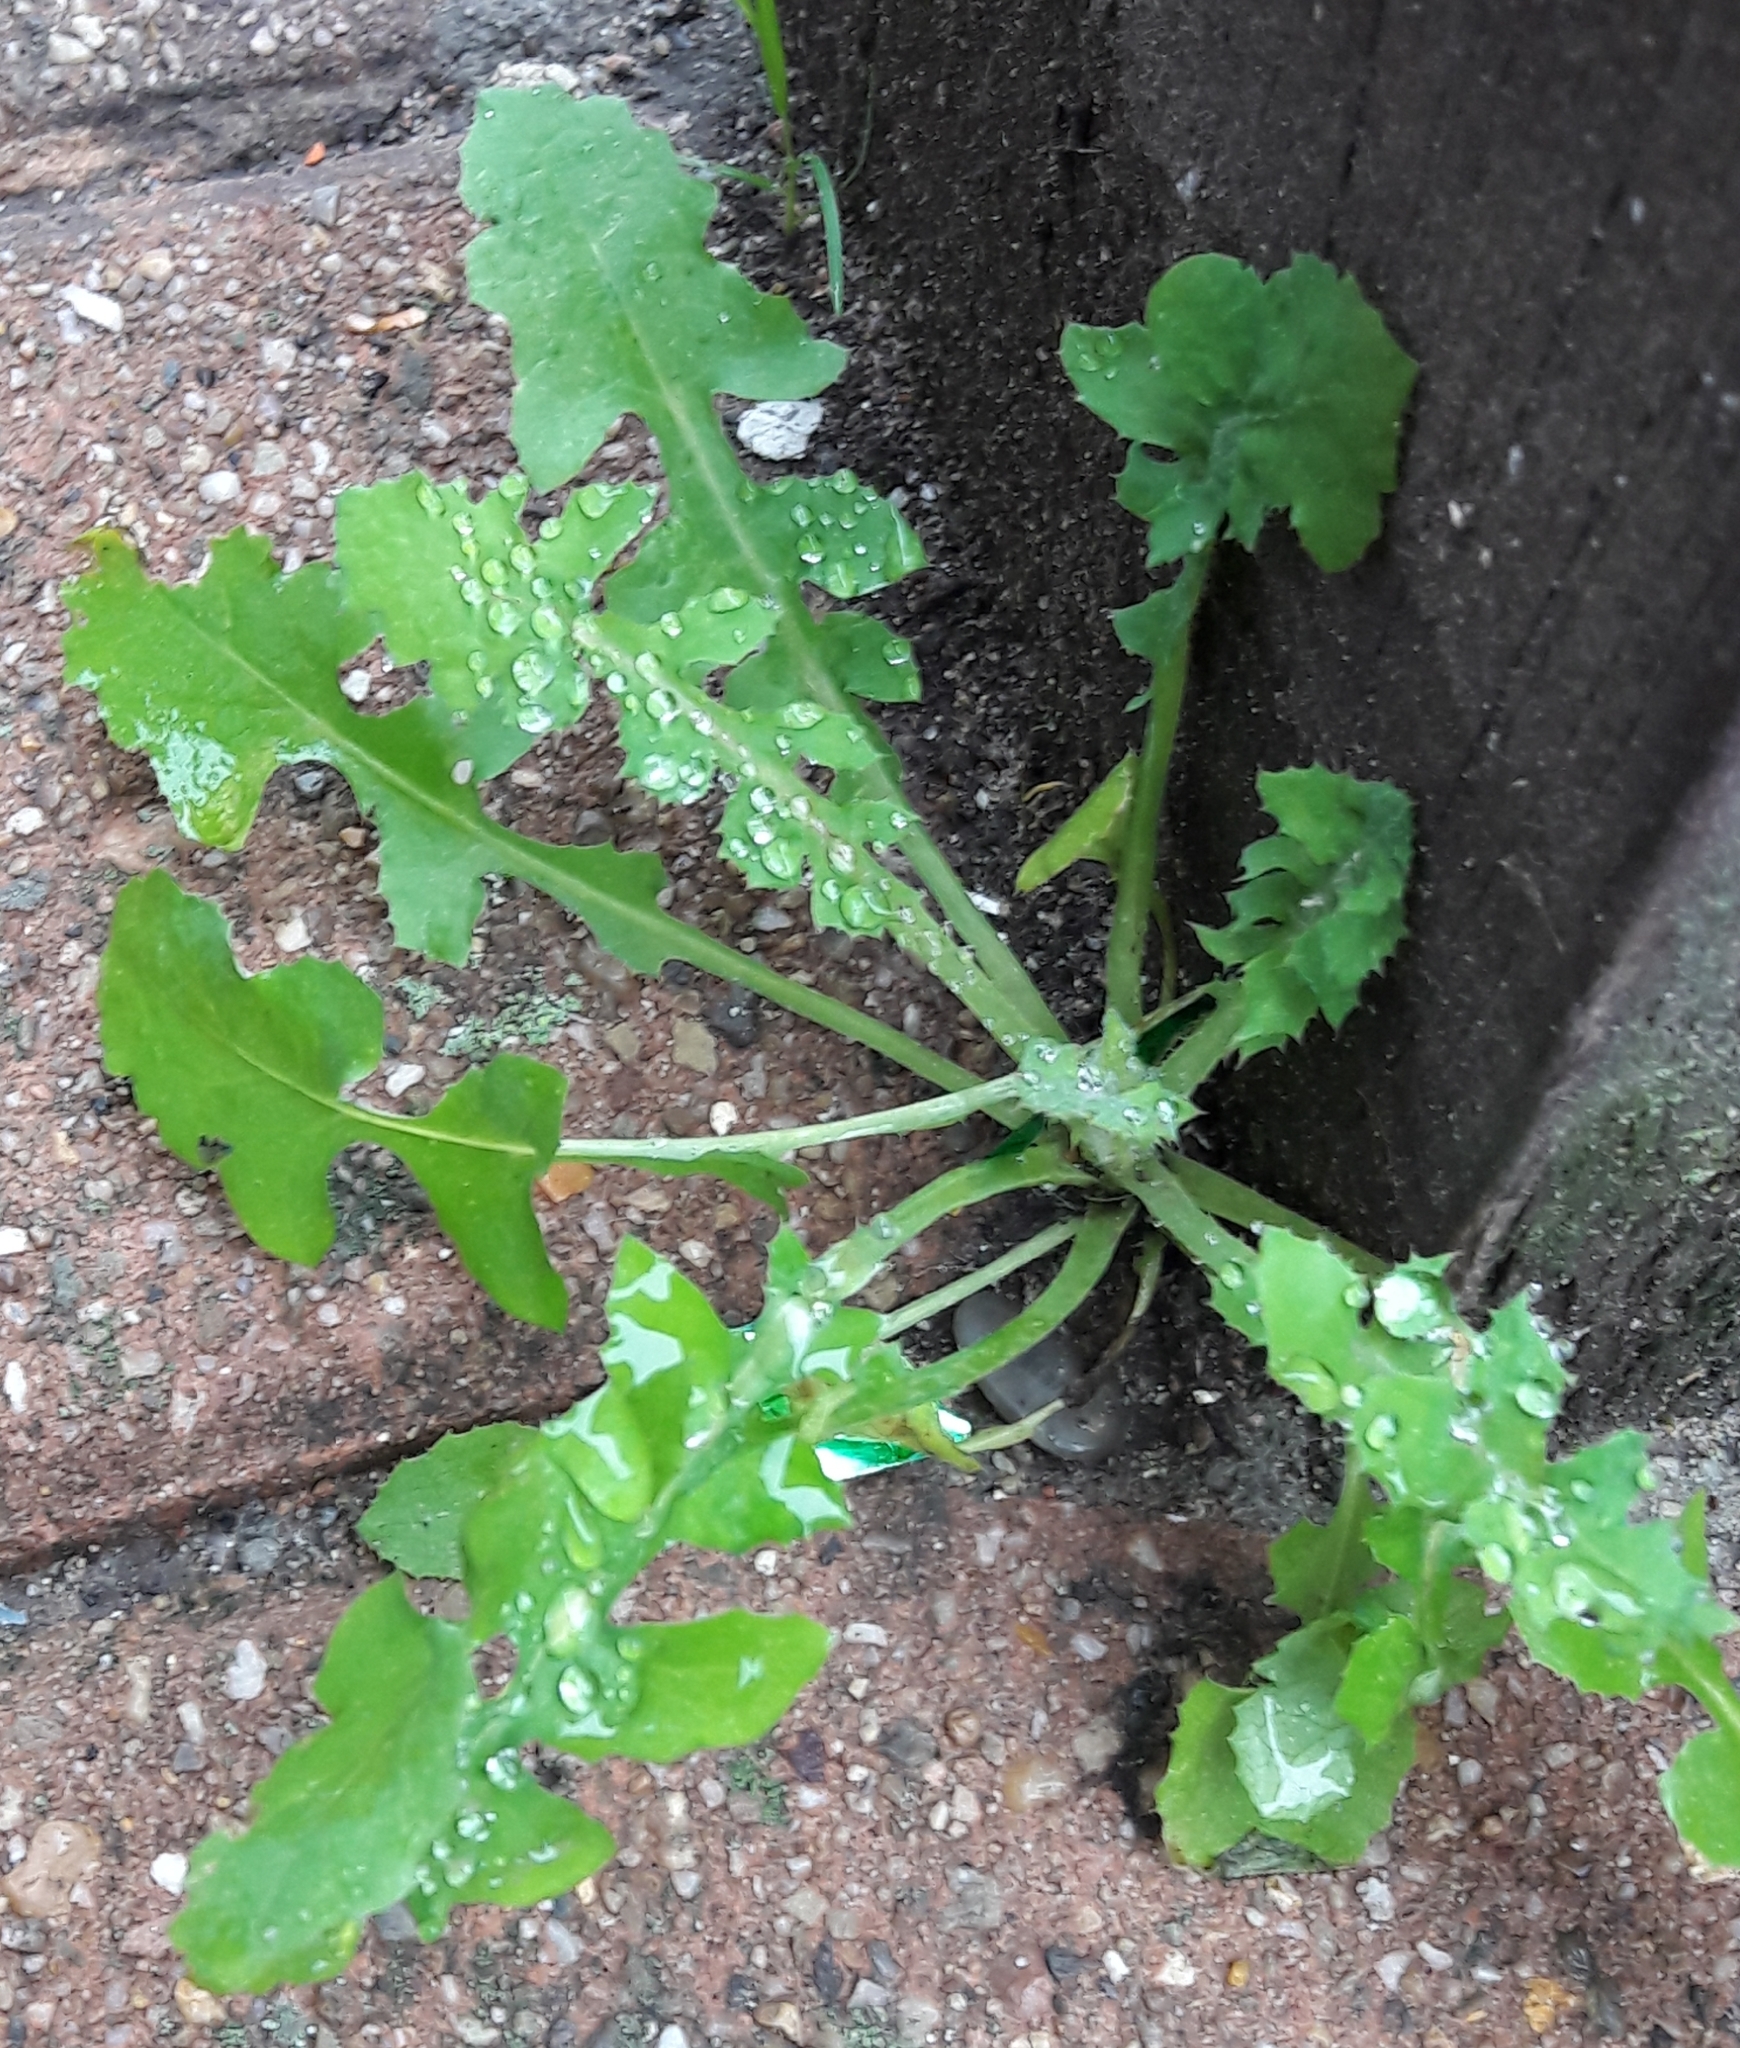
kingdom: Plantae
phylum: Tracheophyta
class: Magnoliopsida
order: Asterales
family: Asteraceae
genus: Sonchus
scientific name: Sonchus oleraceus
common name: Common sowthistle
